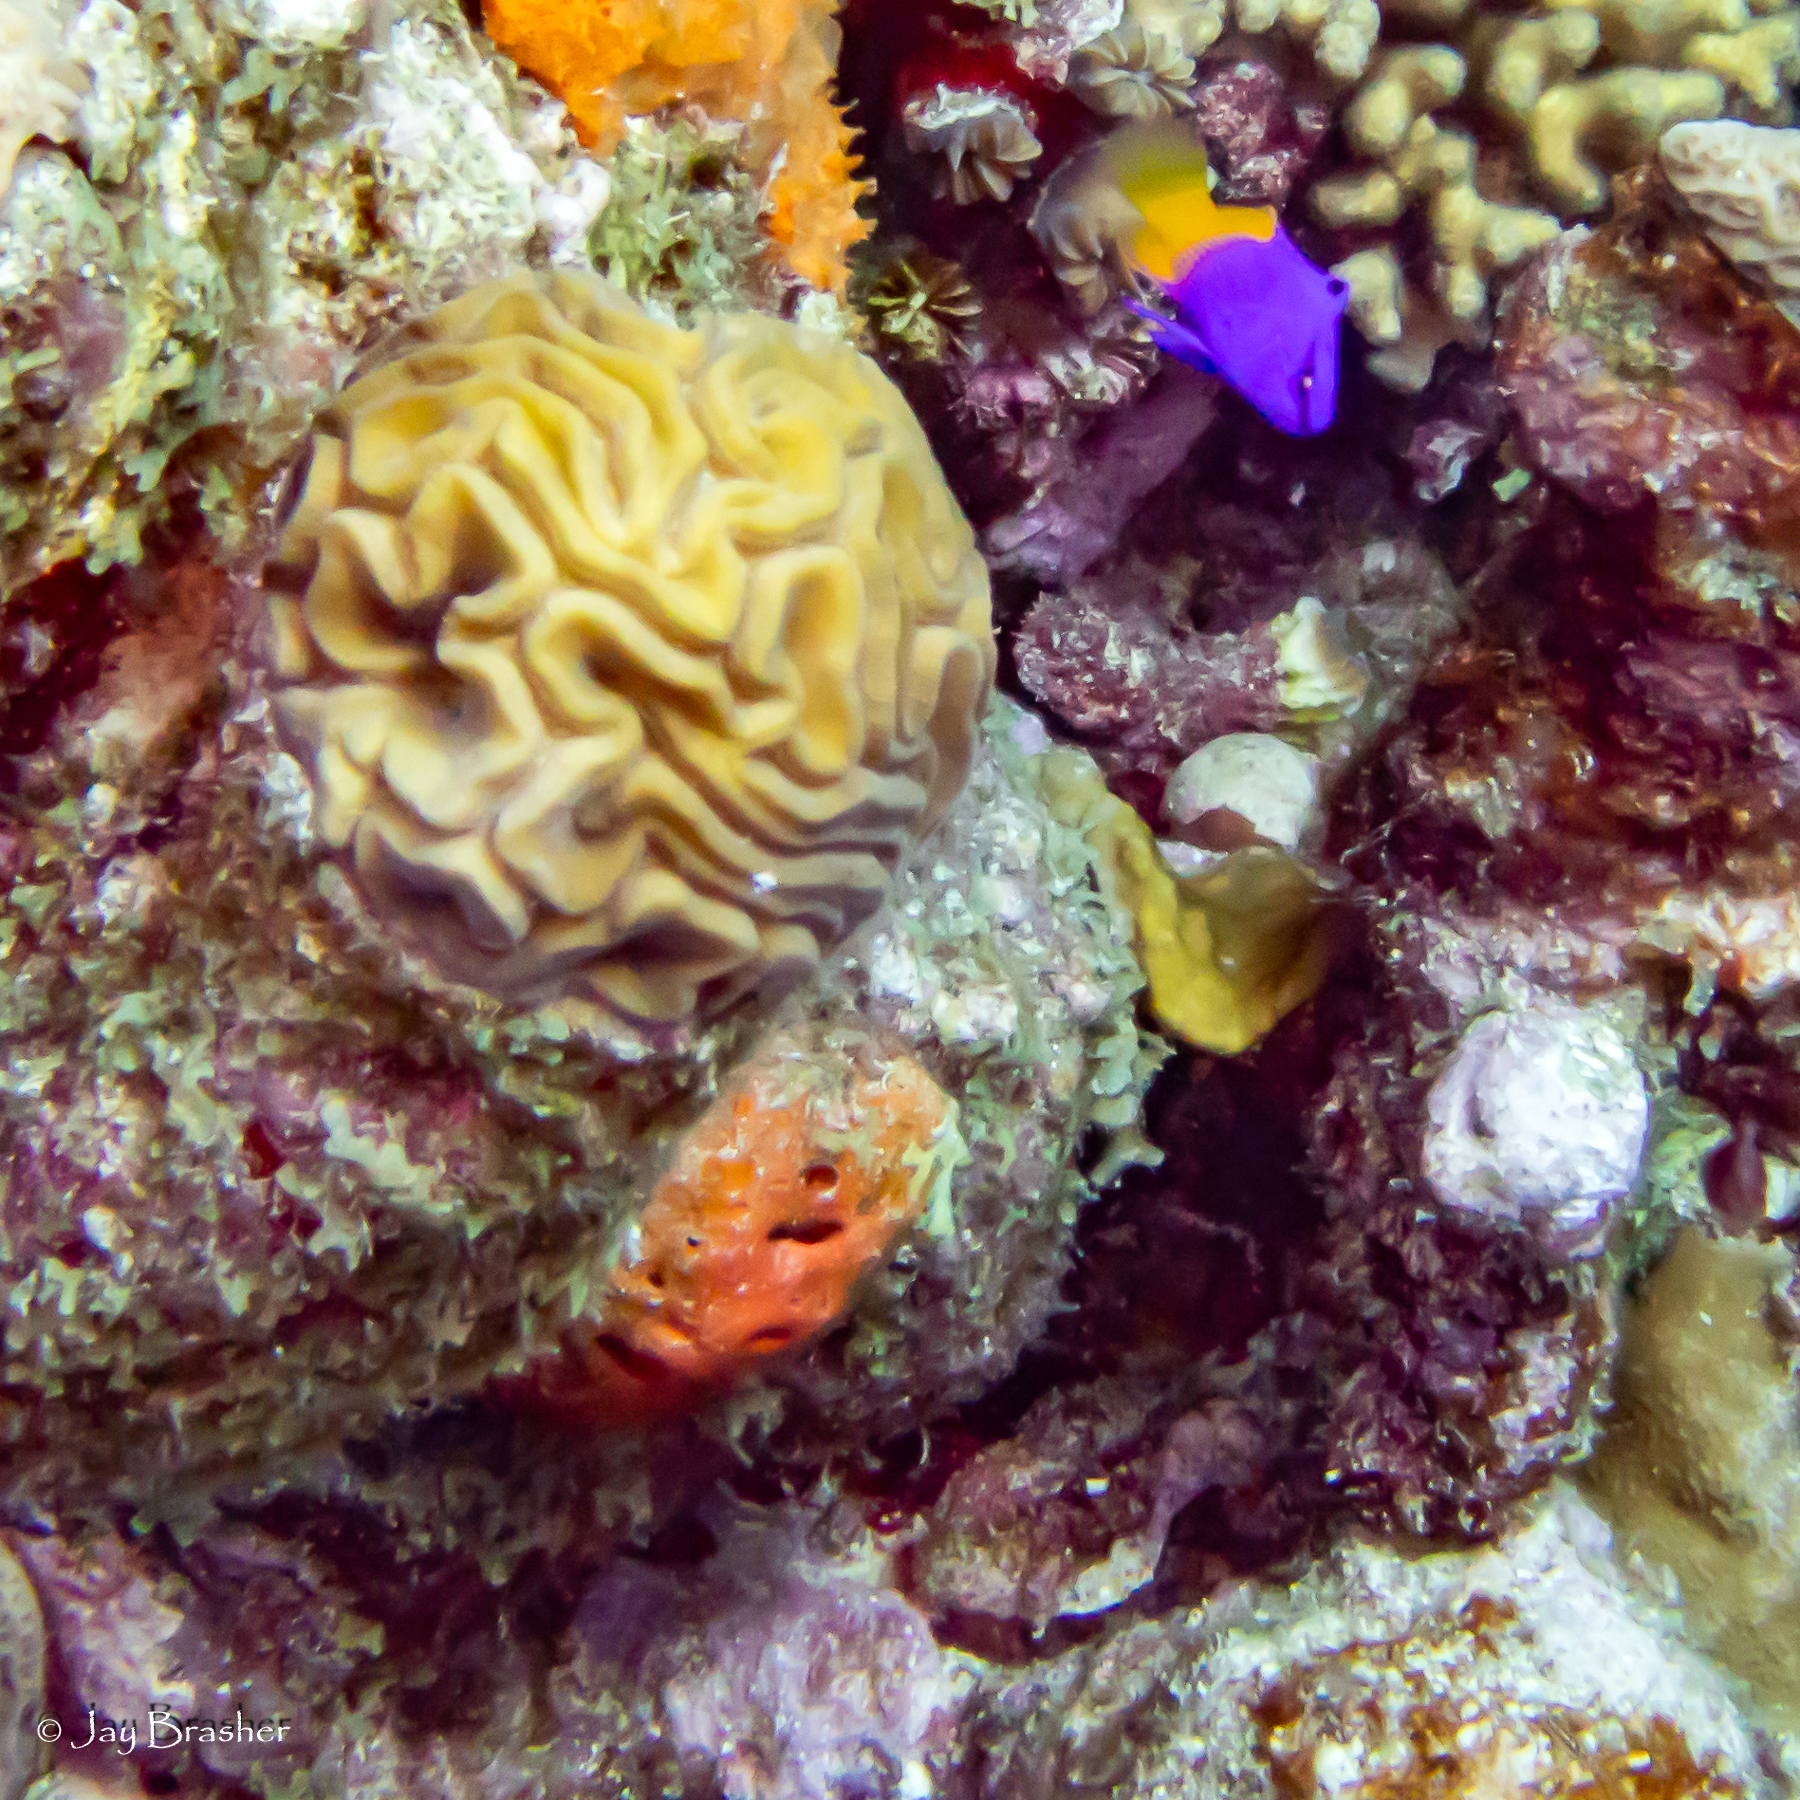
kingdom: Animalia
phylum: Cnidaria
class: Anthozoa
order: Scleractinia
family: Faviidae
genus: Diploria
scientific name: Diploria labyrinthiformis
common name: Grooved brain coral
